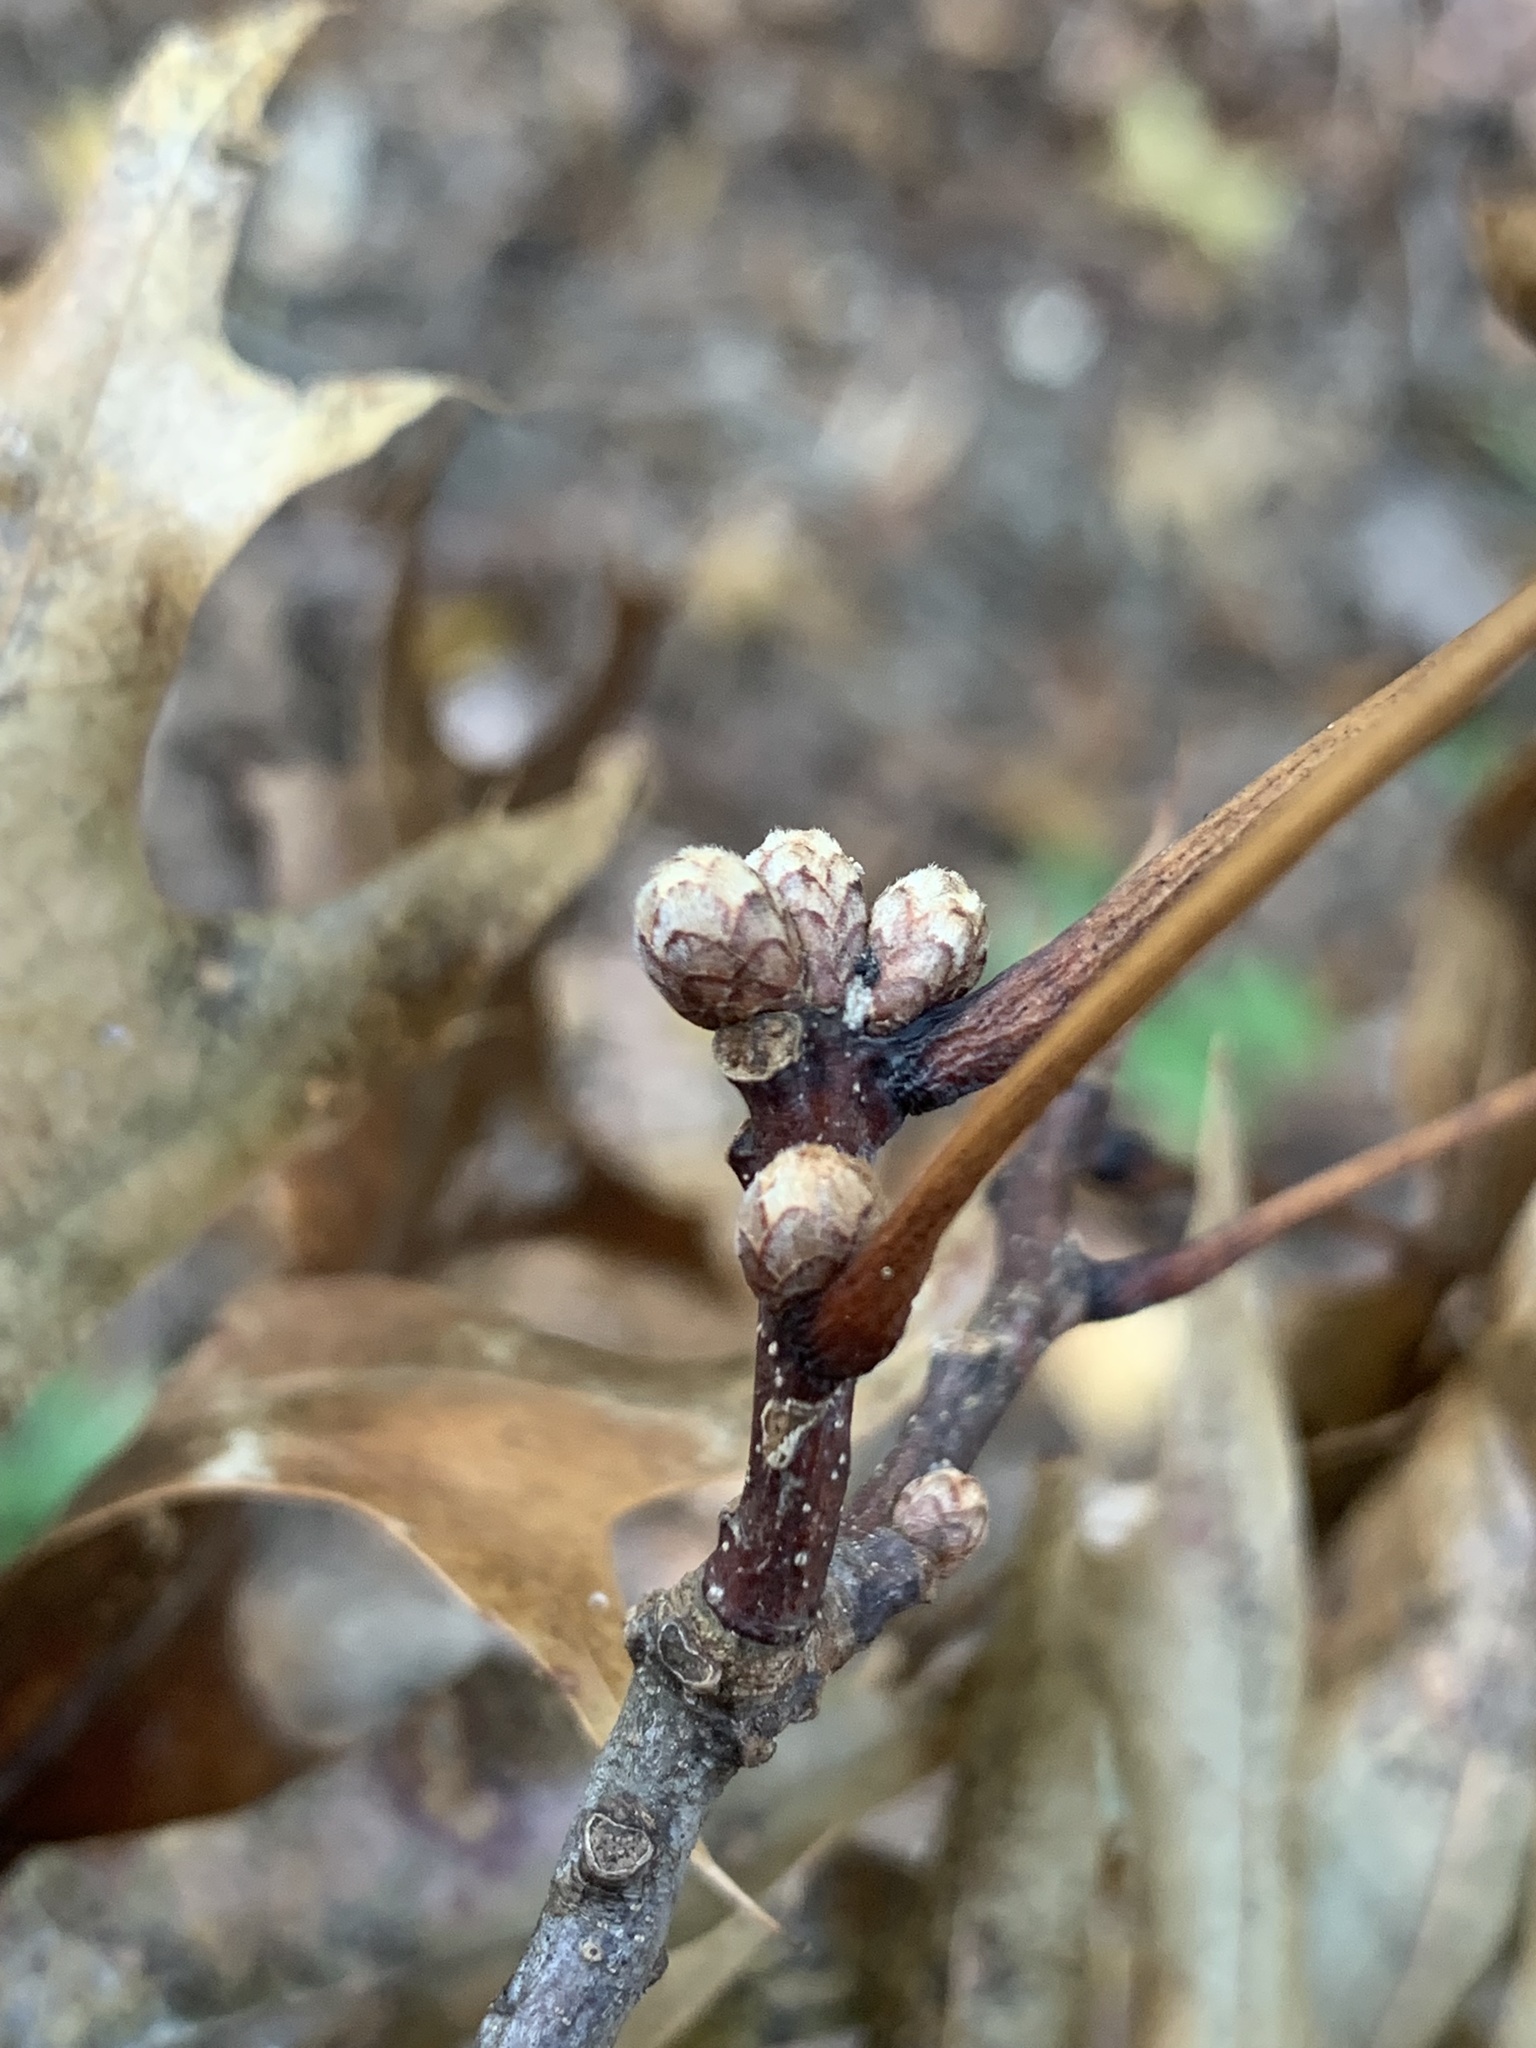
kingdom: Plantae
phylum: Tracheophyta
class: Magnoliopsida
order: Fagales
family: Fagaceae
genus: Quercus
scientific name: Quercus coccinea
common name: Scarlet oak
